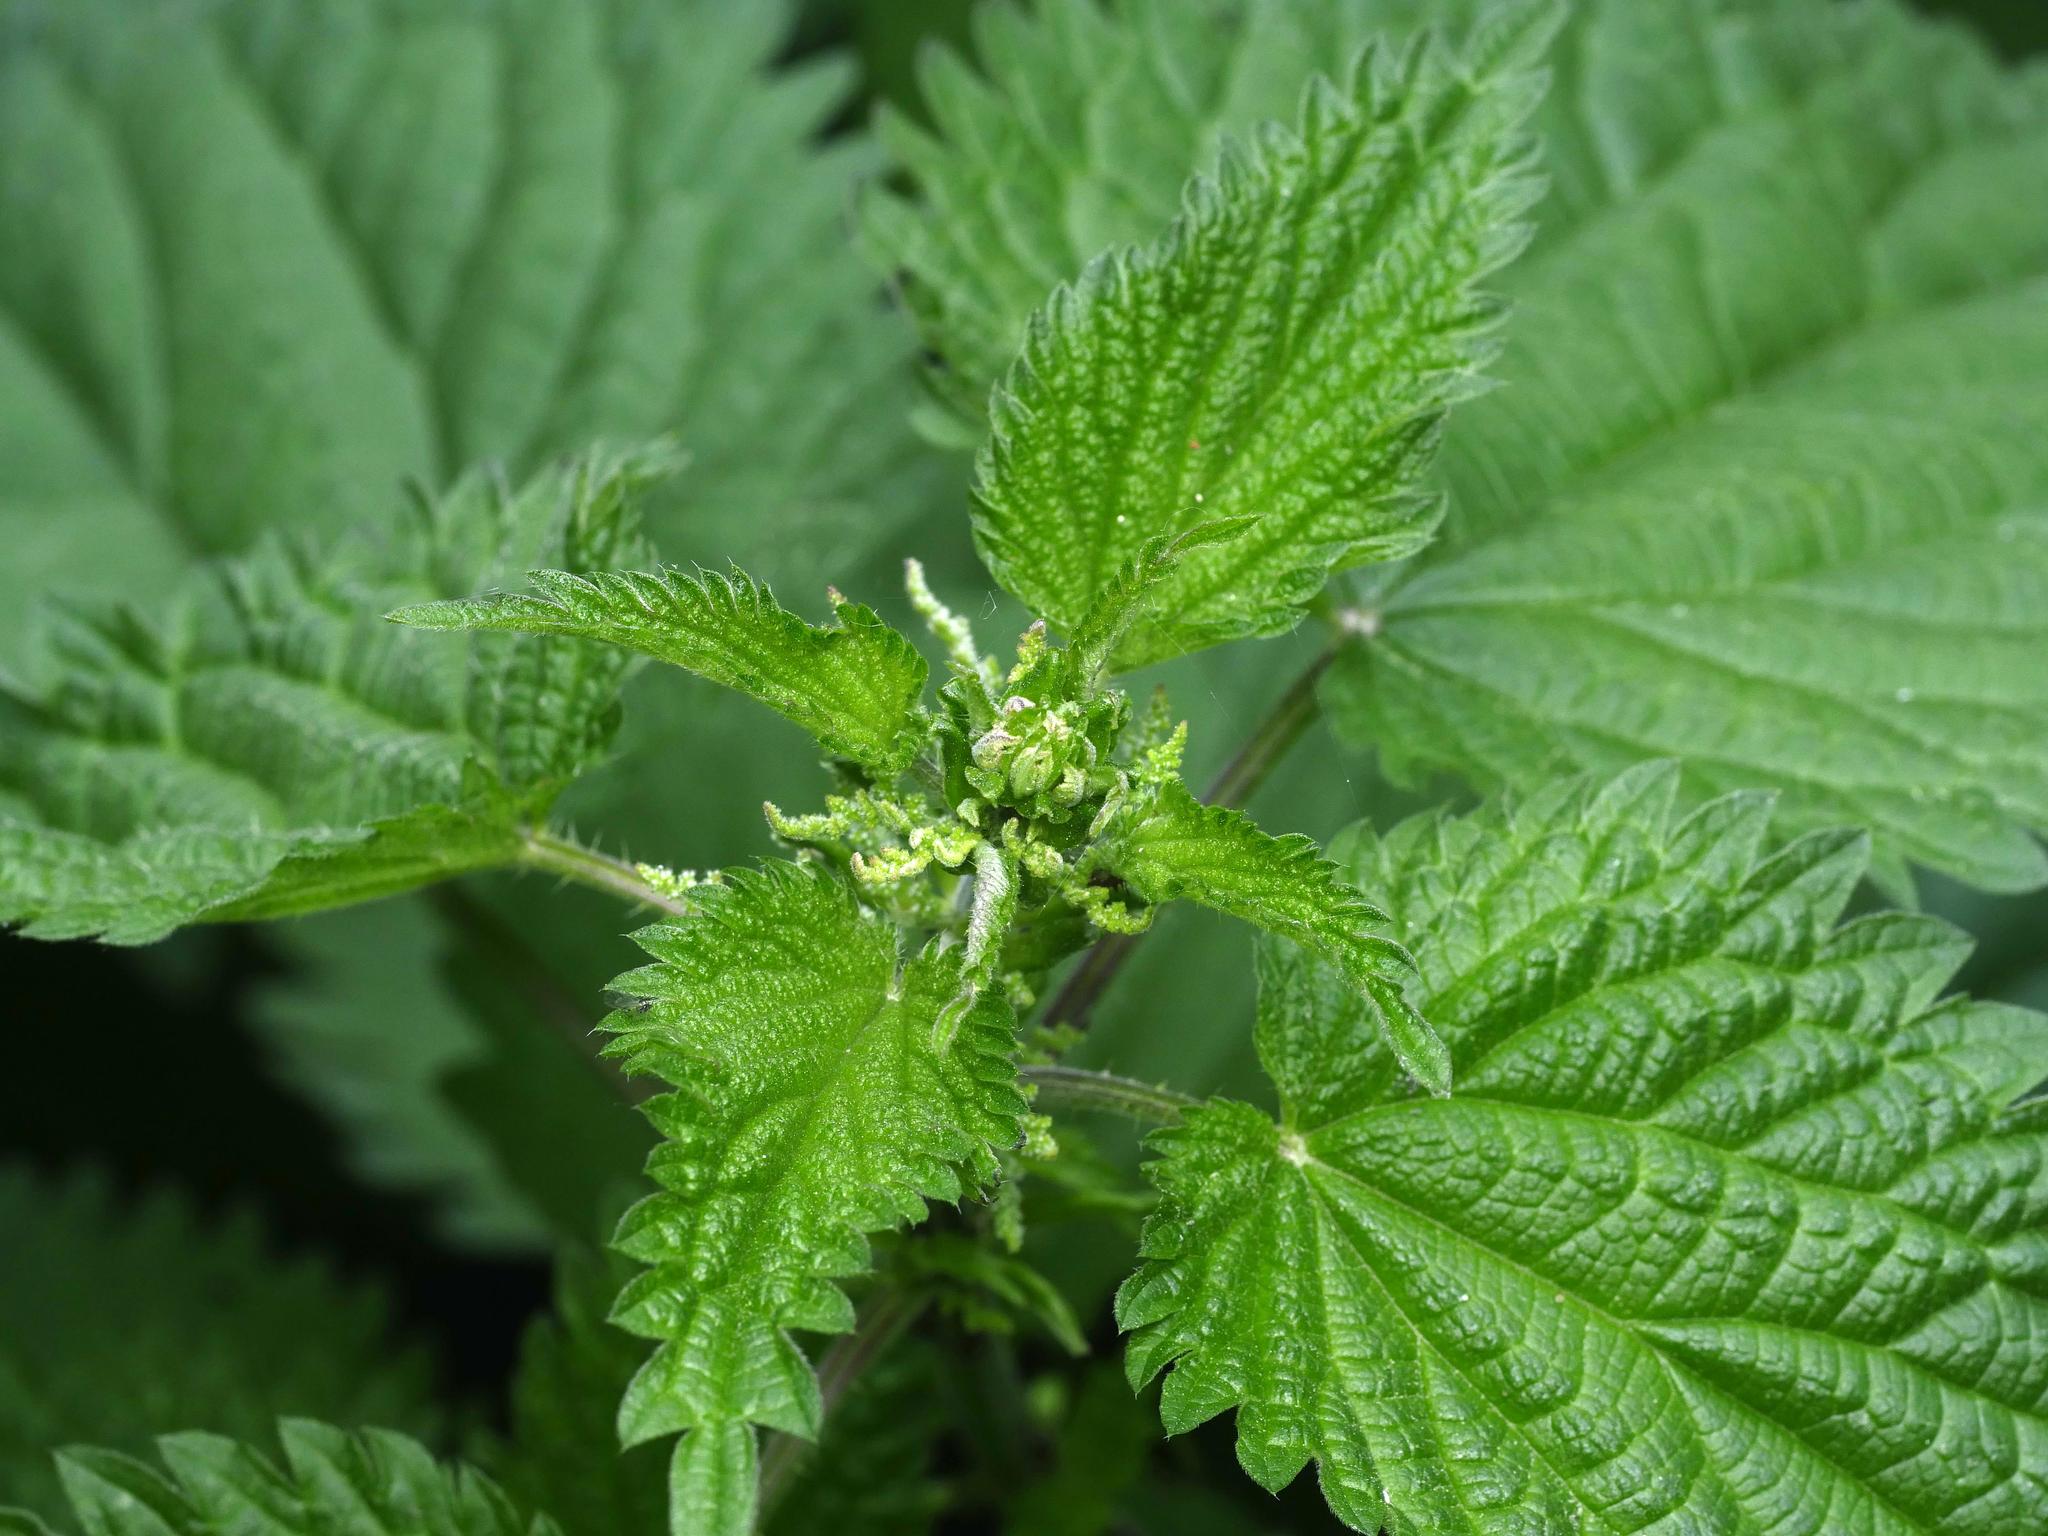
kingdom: Plantae
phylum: Tracheophyta
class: Magnoliopsida
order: Rosales
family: Urticaceae
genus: Urtica
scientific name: Urtica dioica
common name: Common nettle
